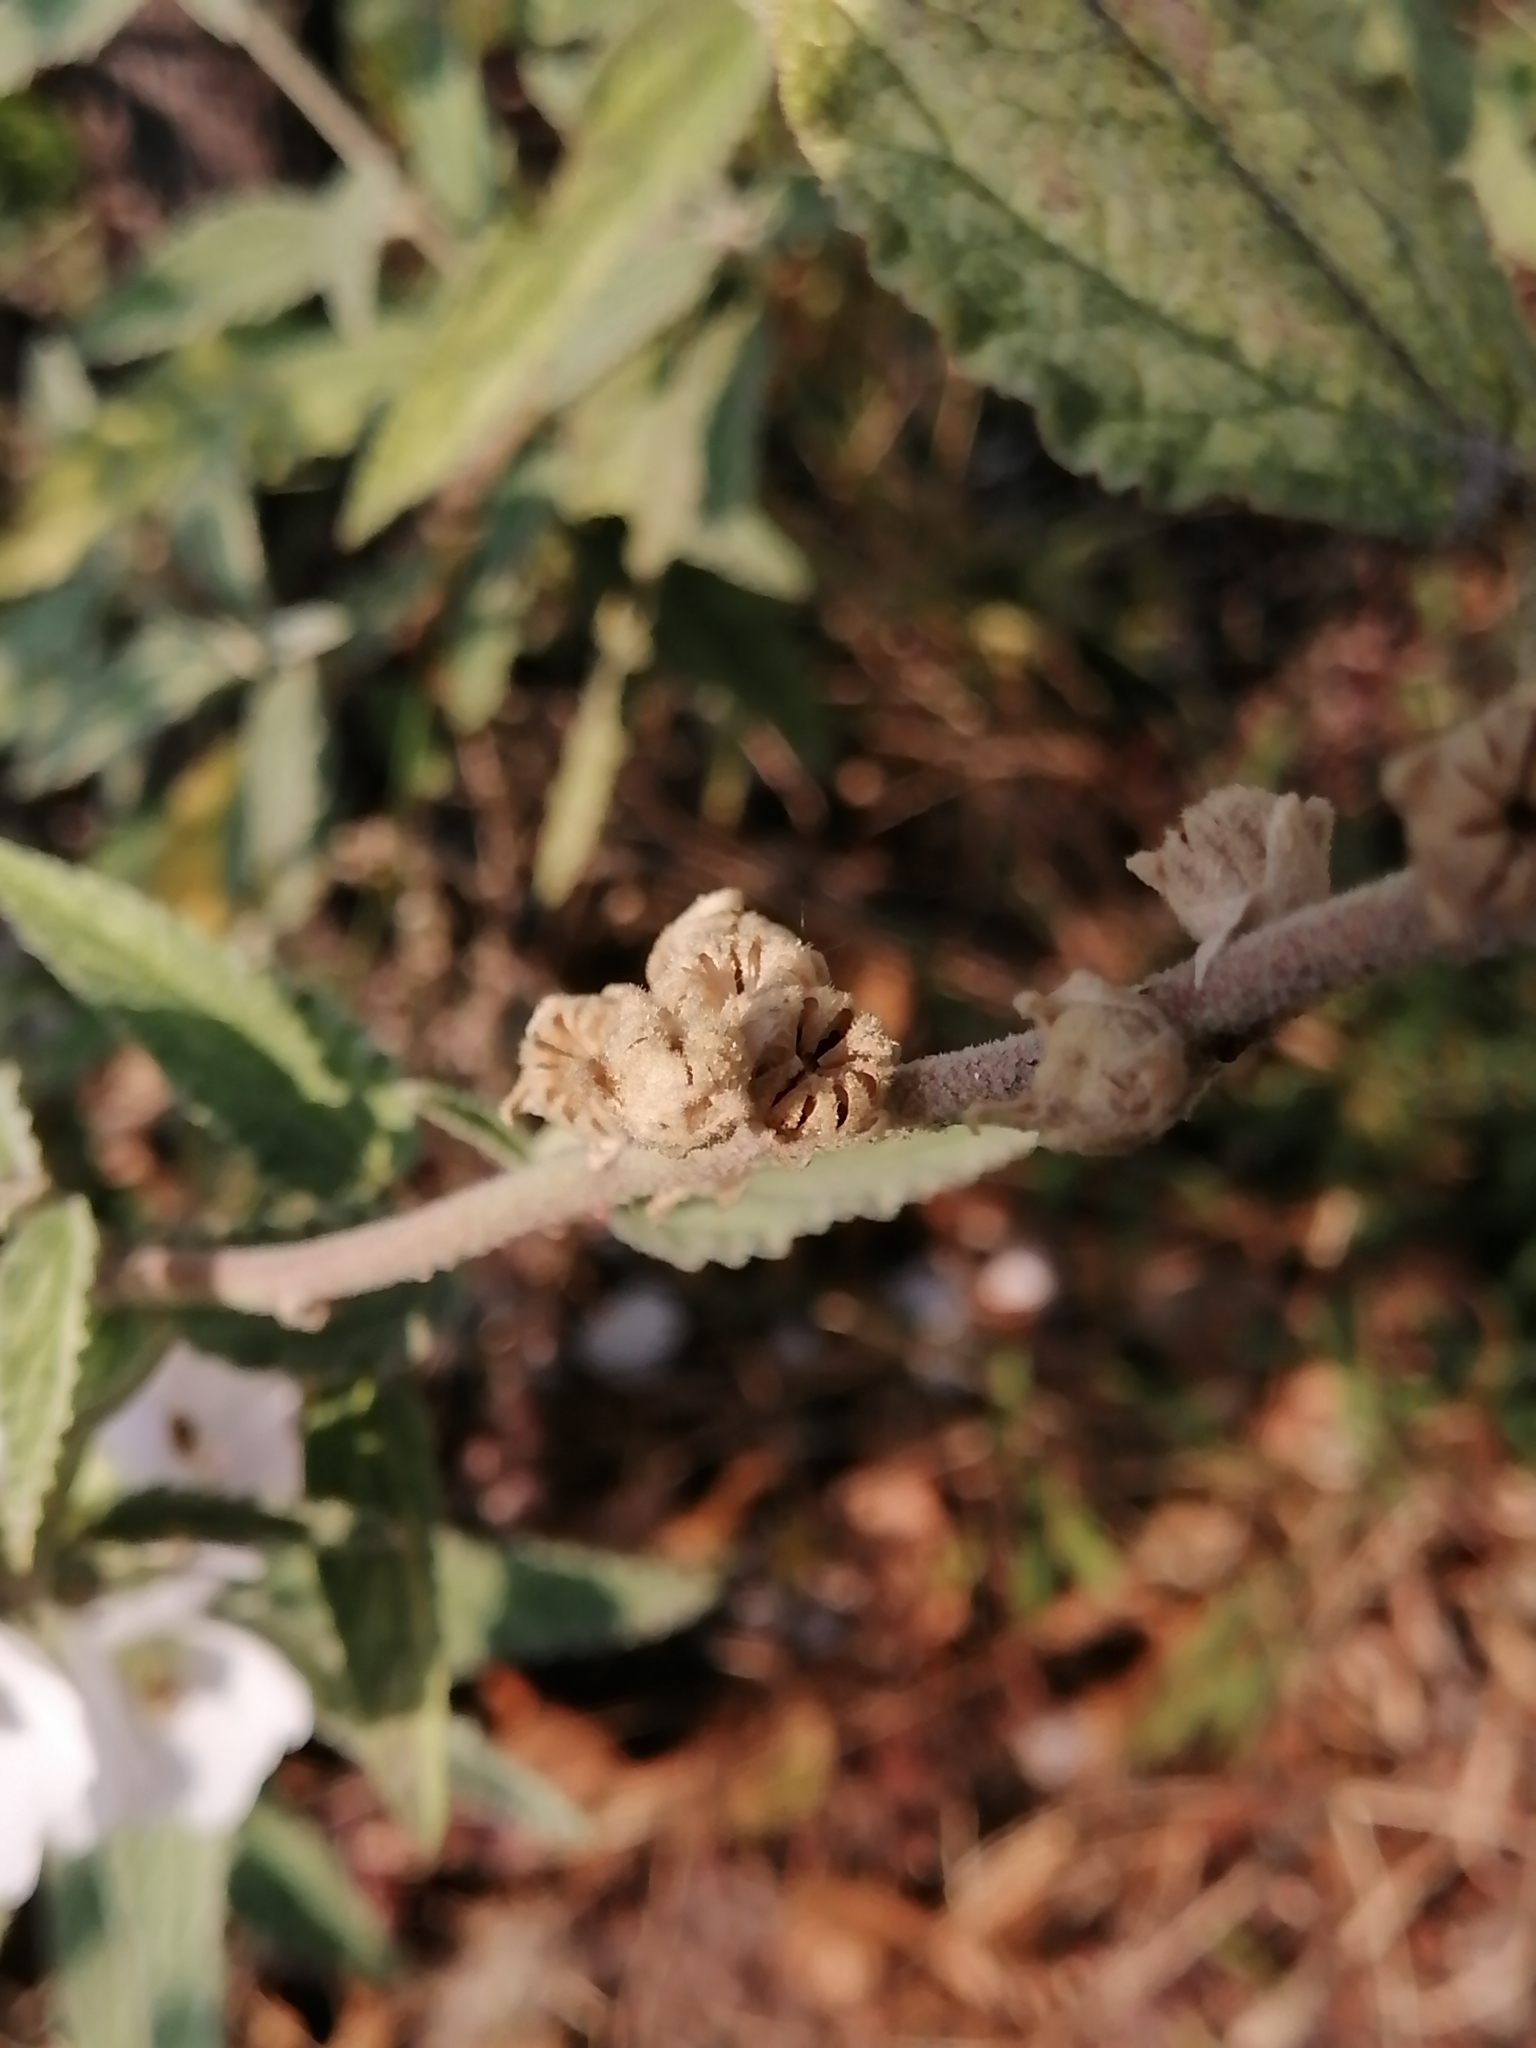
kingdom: Plantae
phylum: Tracheophyta
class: Magnoliopsida
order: Malvales
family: Malvaceae
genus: Sphaeralcea
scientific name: Sphaeralcea angustifolia
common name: Copper globe-mallow
